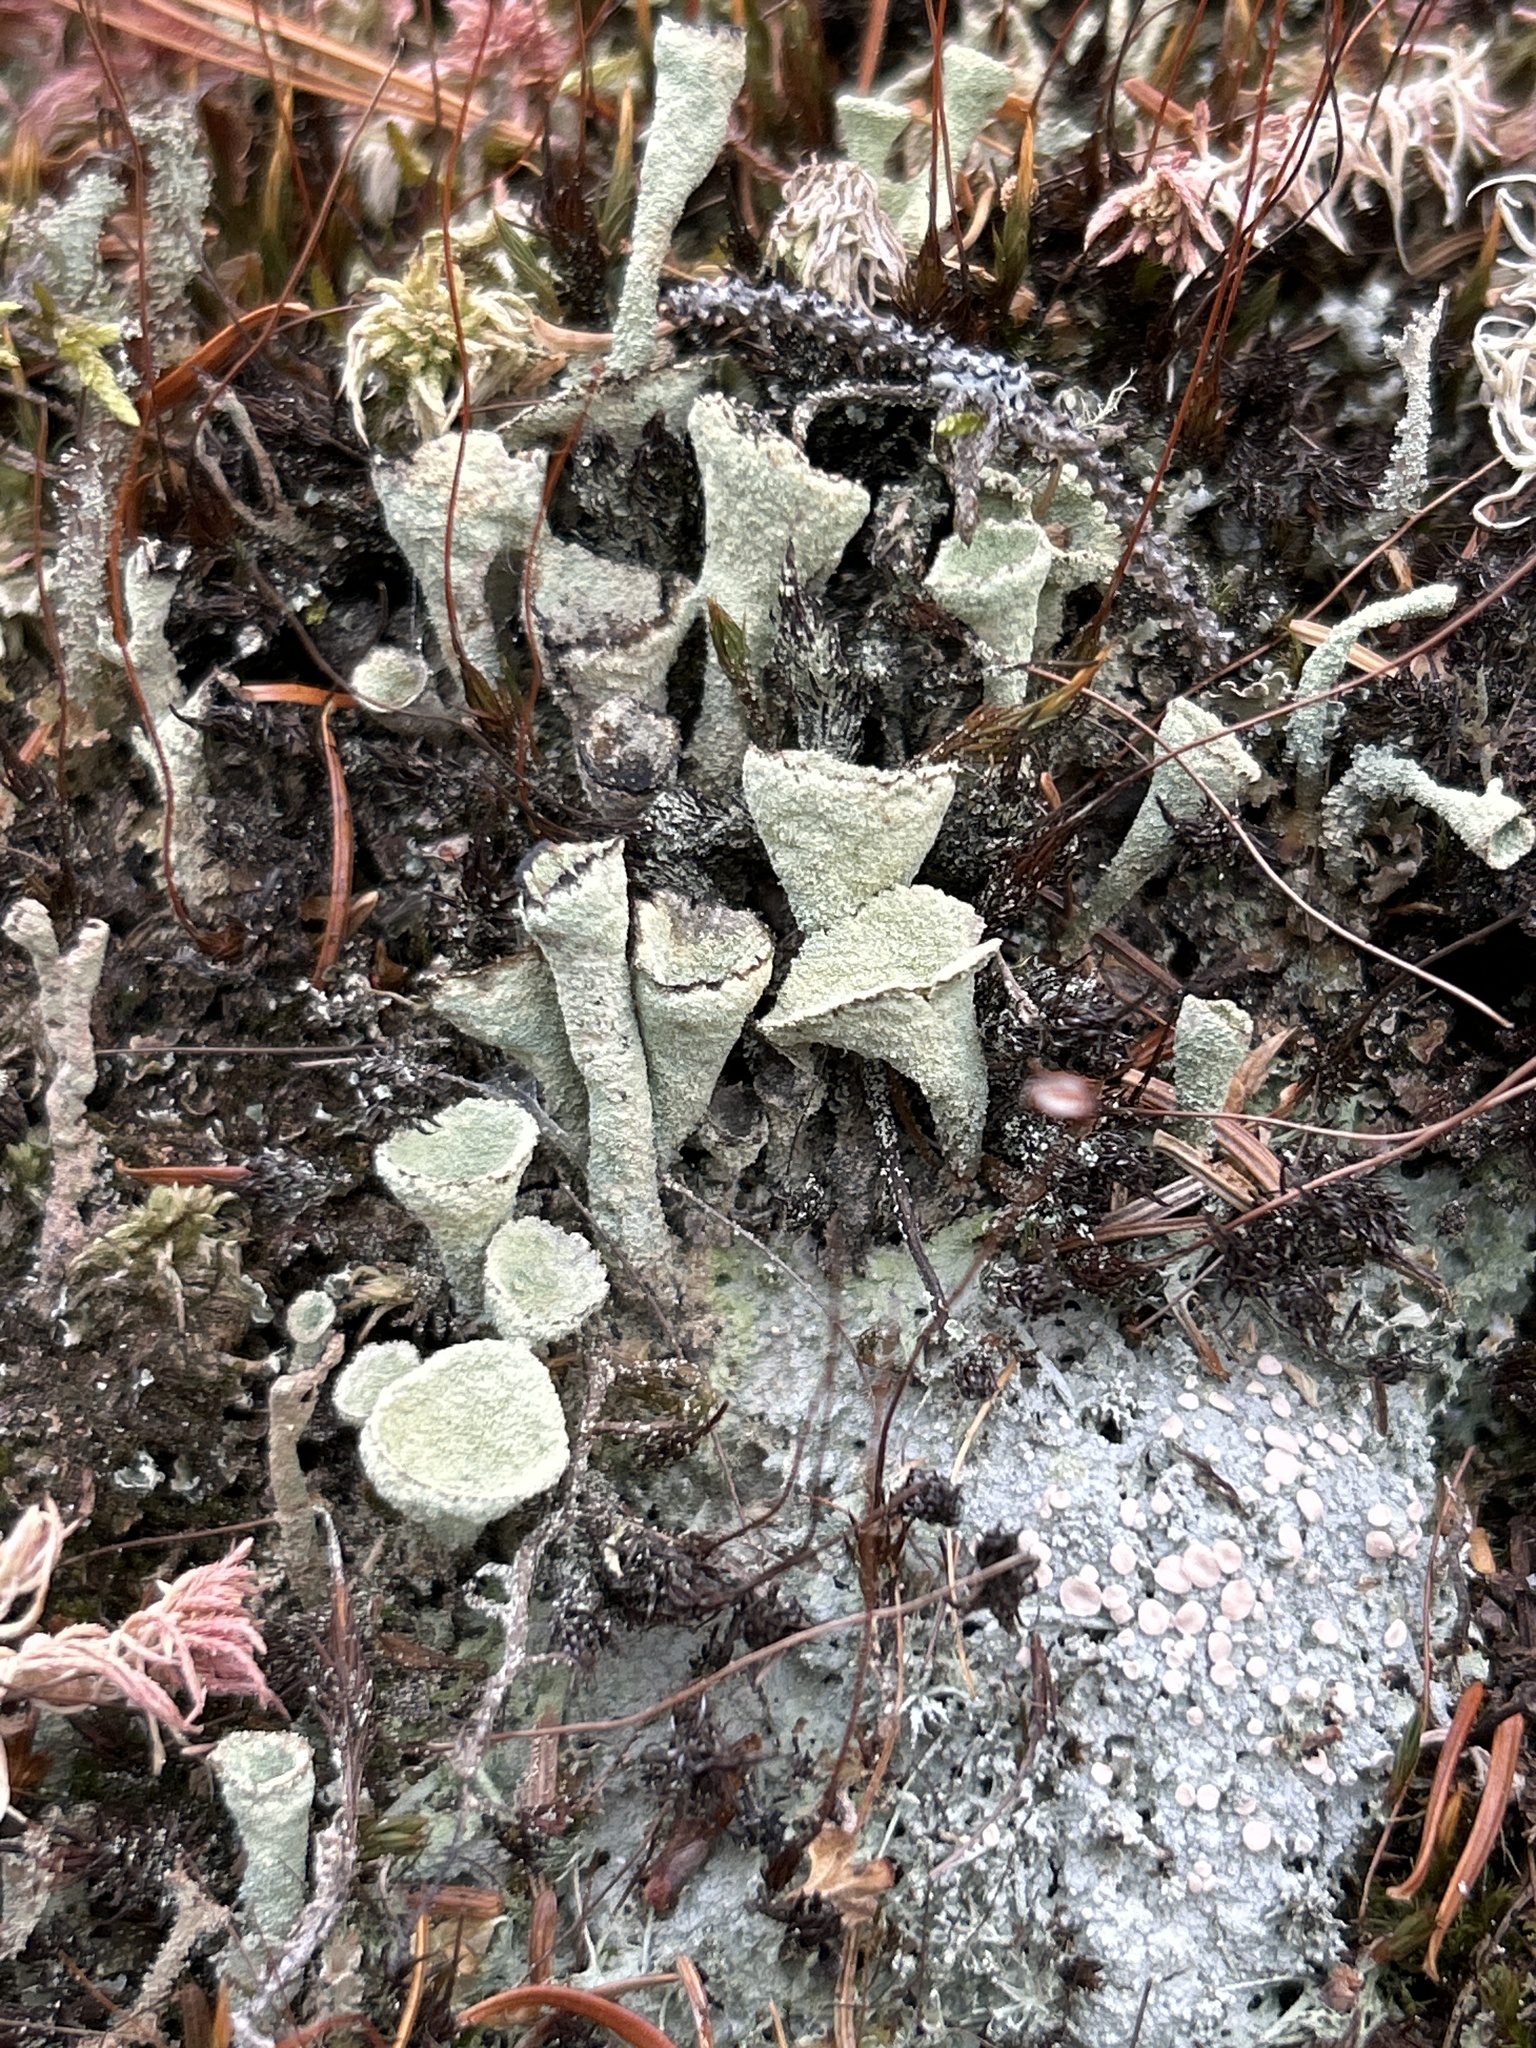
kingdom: Fungi
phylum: Ascomycota
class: Lecanoromycetes
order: Lecanorales
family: Cladoniaceae
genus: Cladonia
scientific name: Cladonia fimbriata
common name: Powdered trumpet lichen
